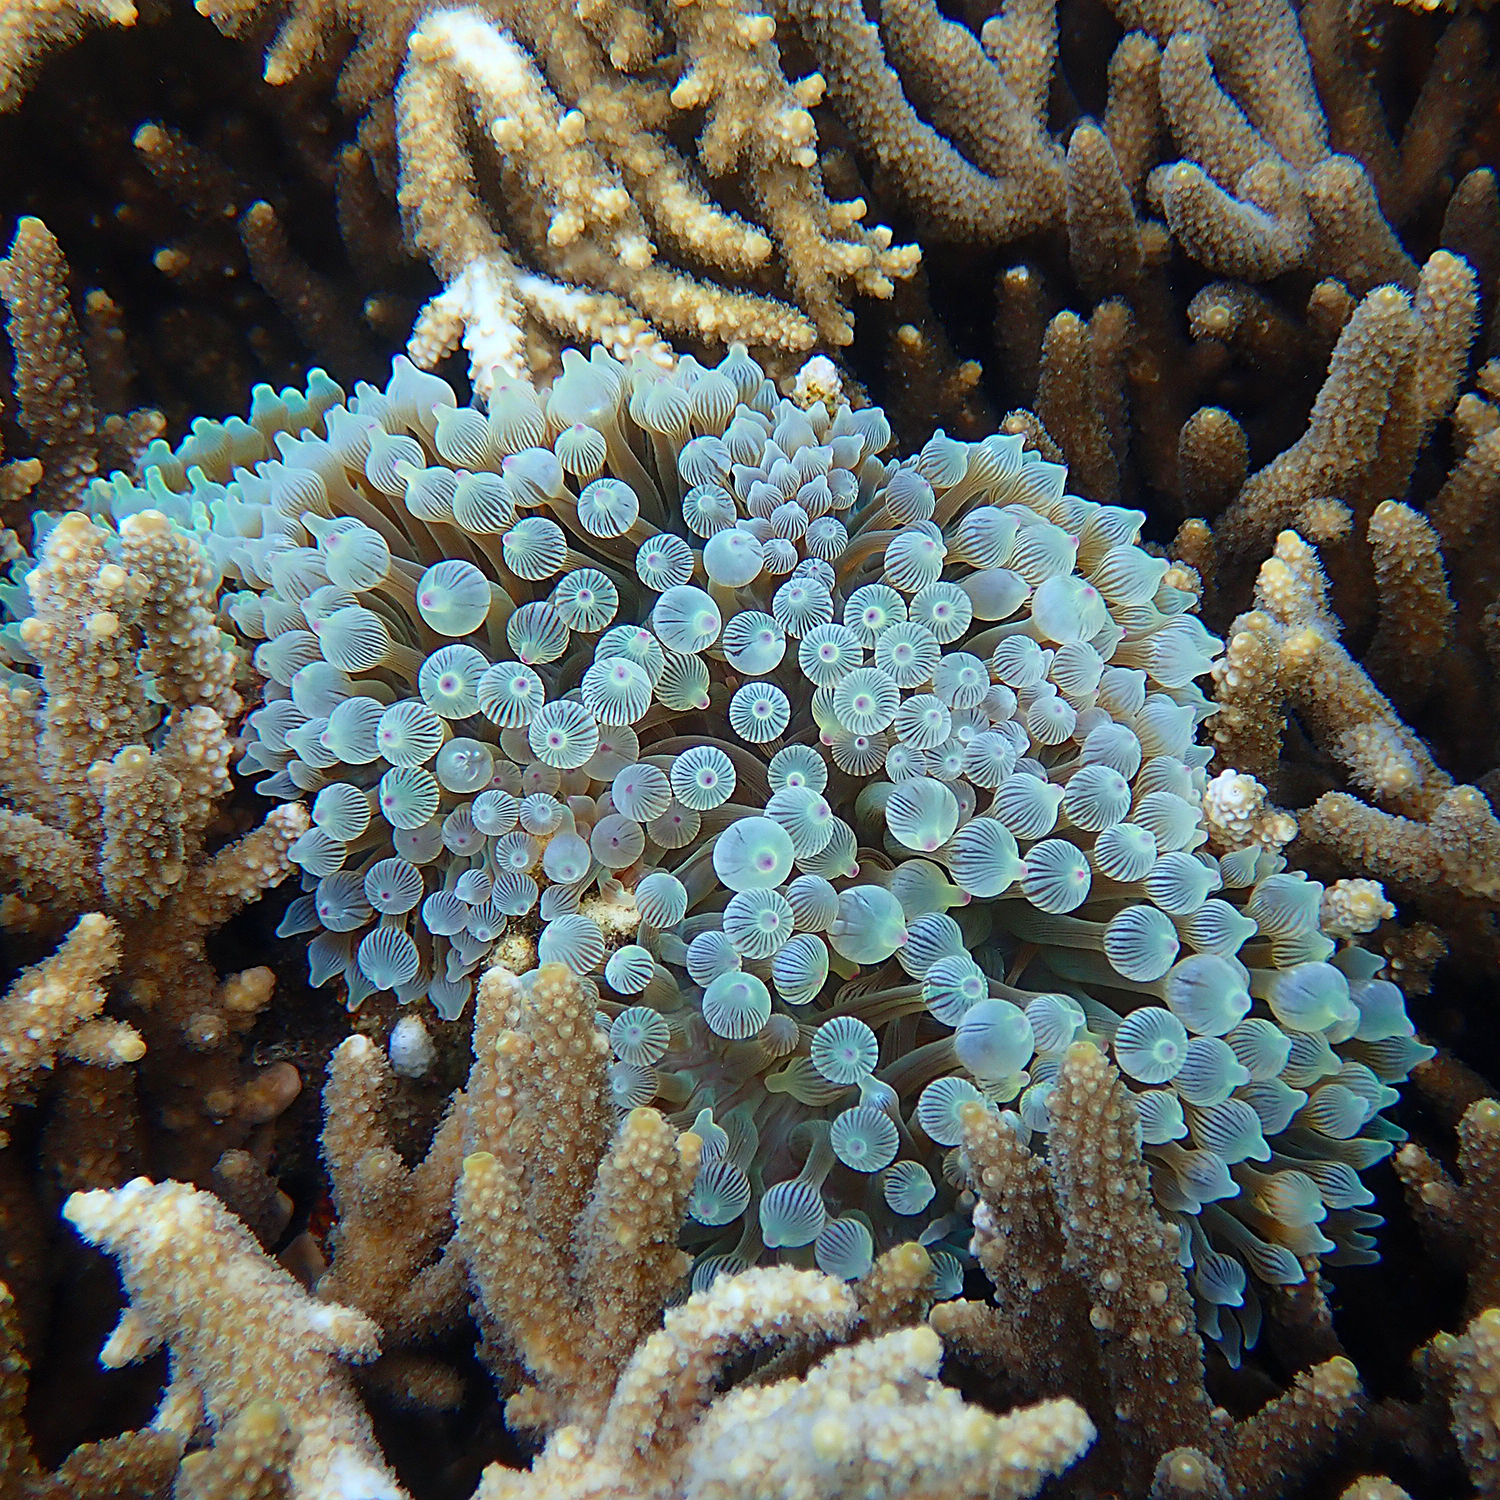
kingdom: Animalia
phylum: Cnidaria
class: Anthozoa
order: Actiniaria
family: Actiniidae
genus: Entacmaea
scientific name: Entacmaea quadricolor
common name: Bulb tentacle sea anemone
